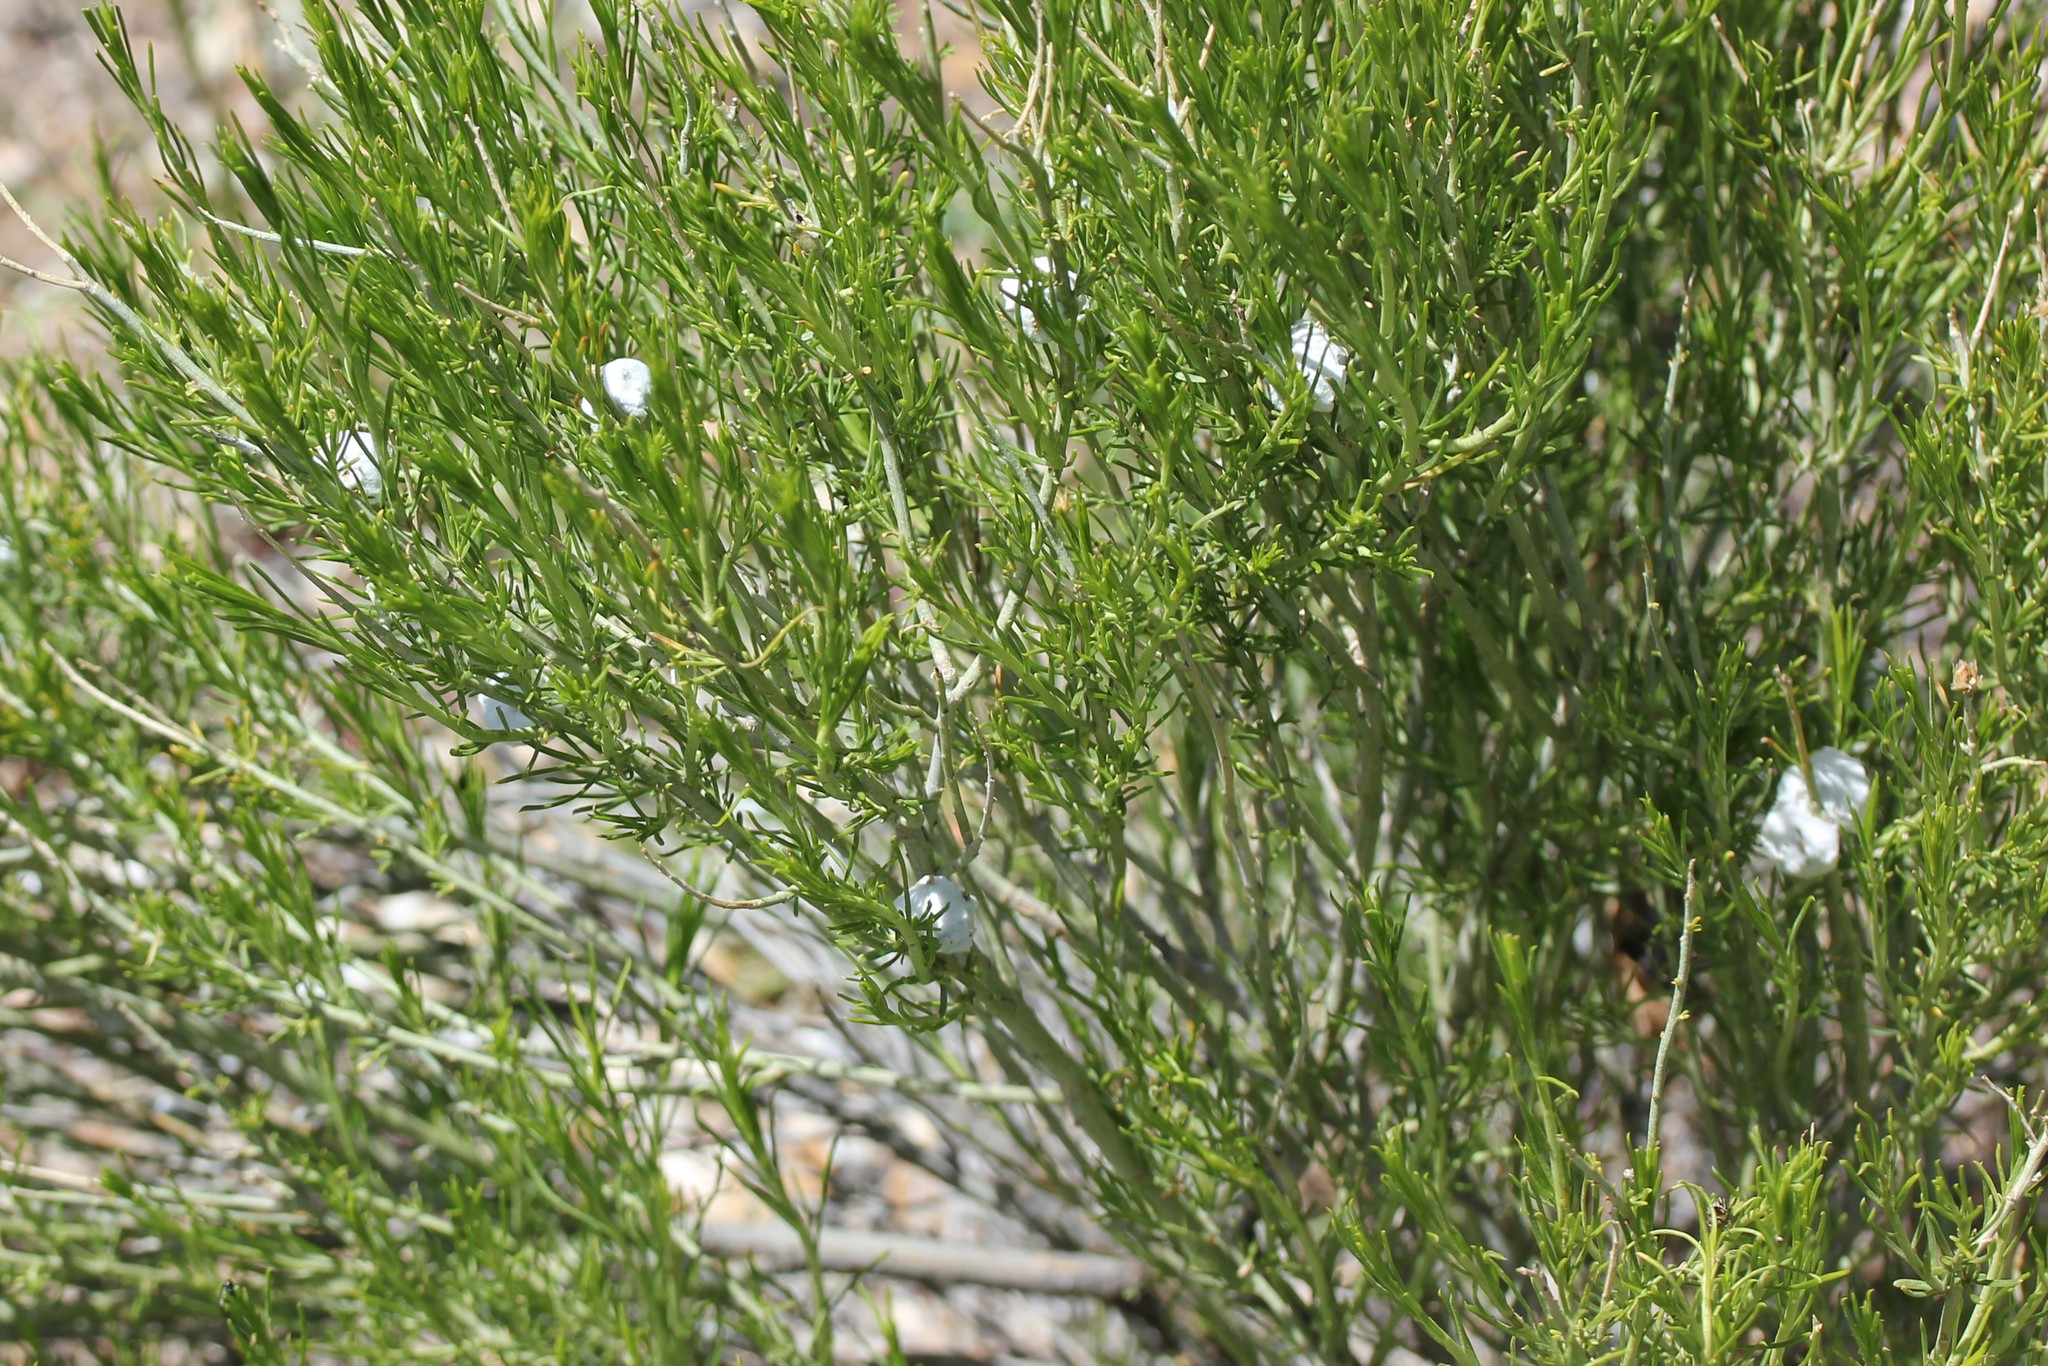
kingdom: Animalia
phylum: Arthropoda
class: Insecta
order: Diptera
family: Tephritidae
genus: Aciurina
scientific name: Aciurina bigeloviae
